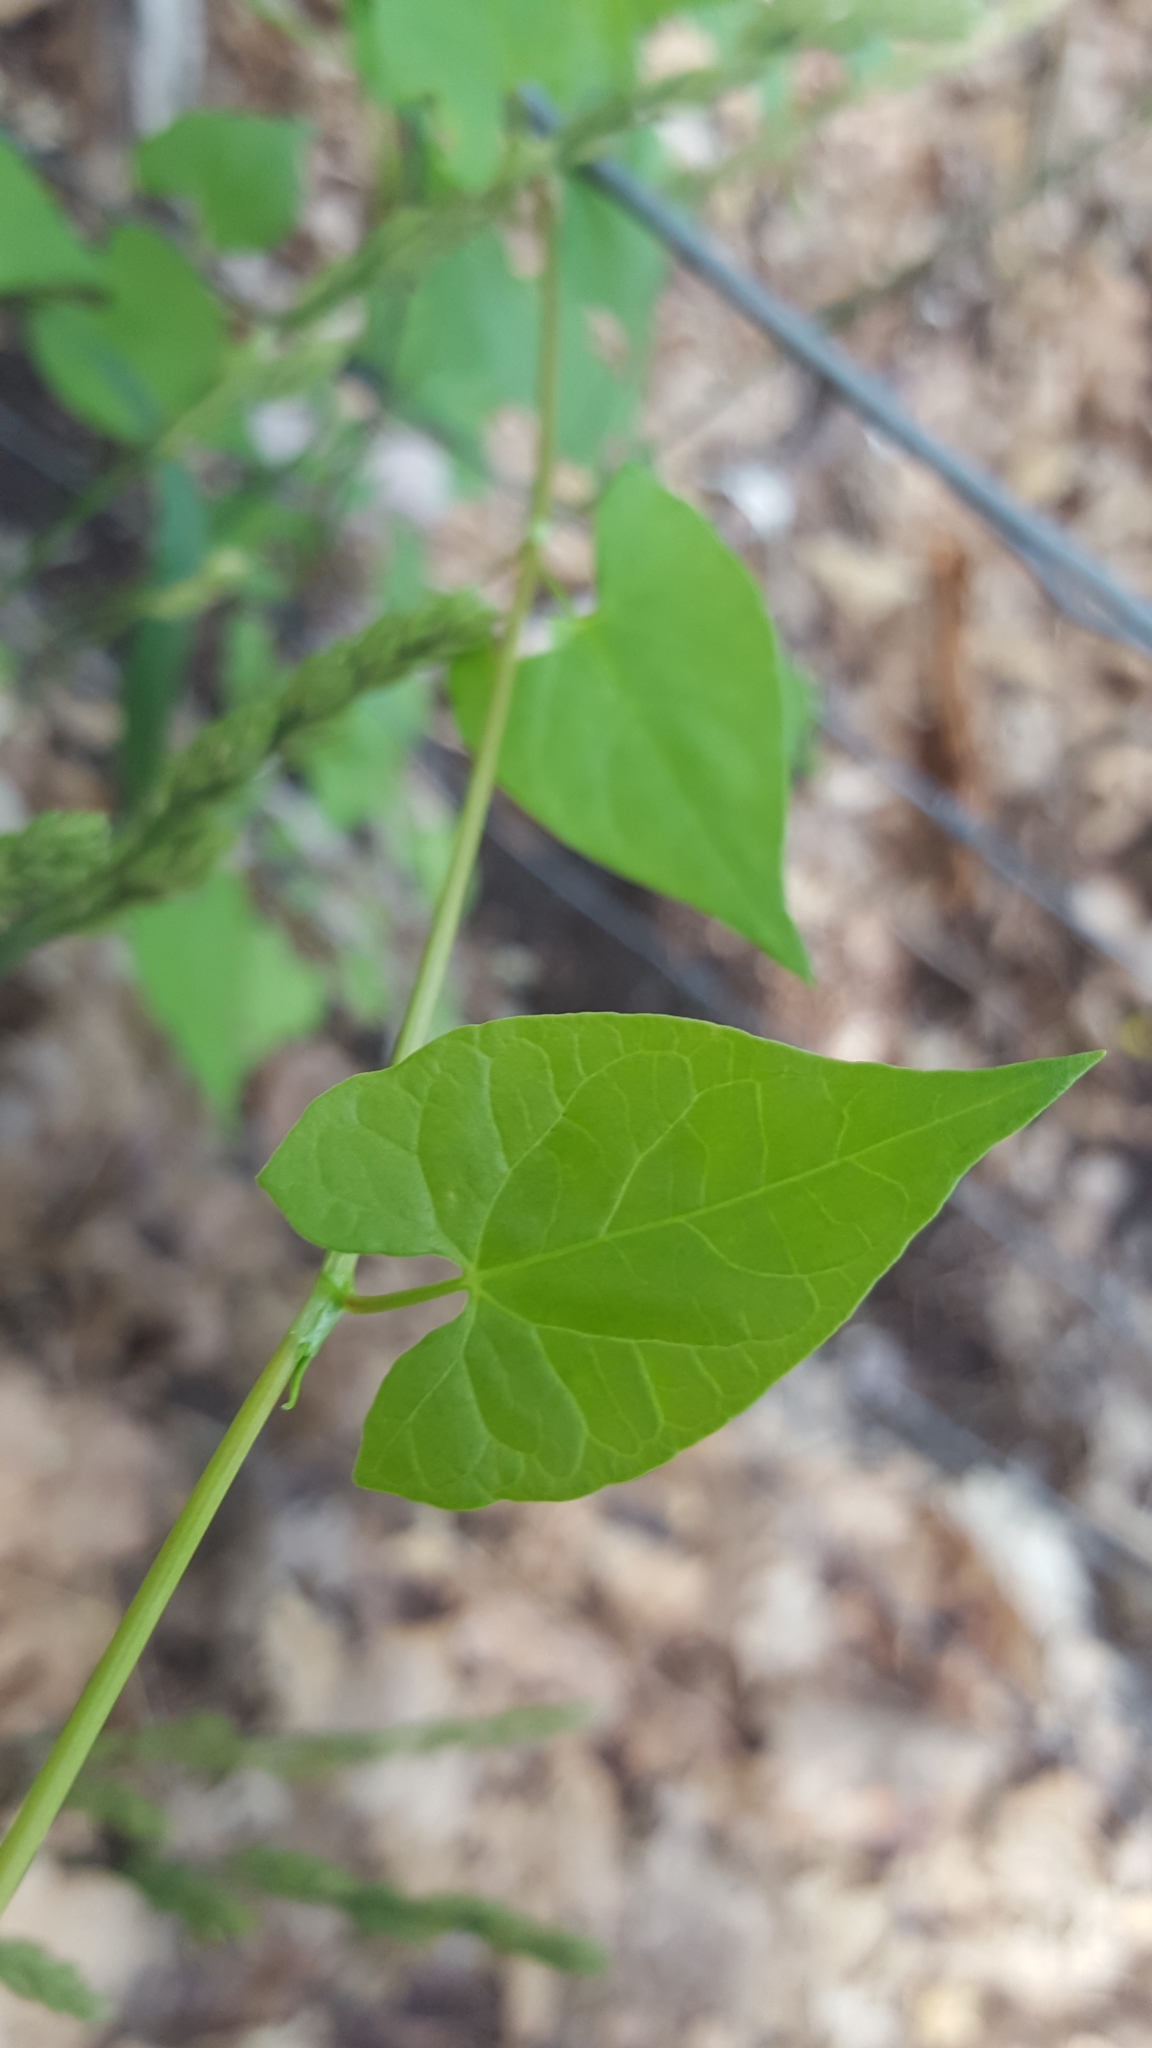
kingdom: Plantae
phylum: Tracheophyta
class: Magnoliopsida
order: Caryophyllales
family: Polygonaceae
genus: Fallopia
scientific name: Fallopia convolvulus
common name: Black bindweed
